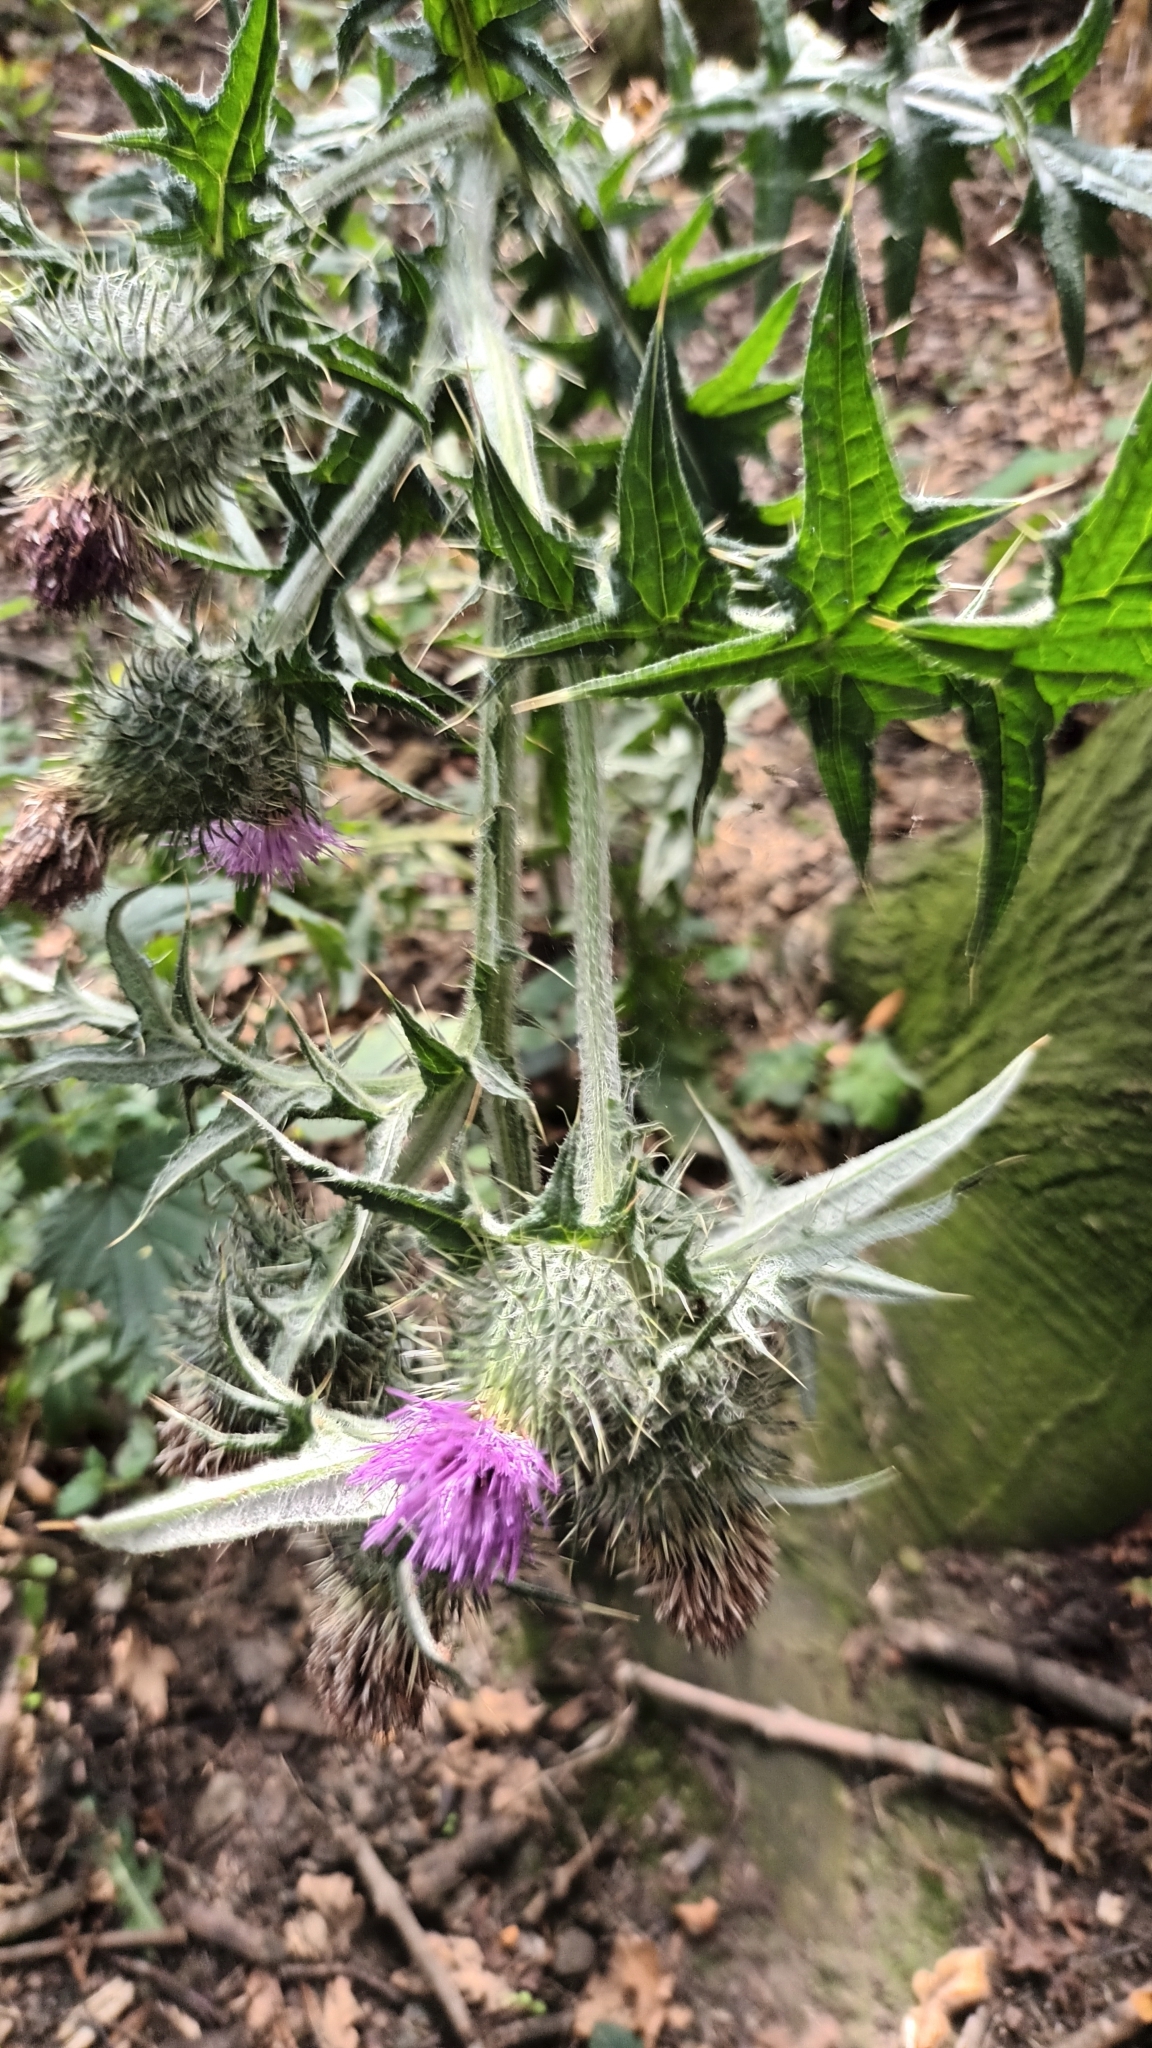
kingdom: Plantae
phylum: Tracheophyta
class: Magnoliopsida
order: Asterales
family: Asteraceae
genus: Cirsium
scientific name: Cirsium vulgare
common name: Bull thistle
